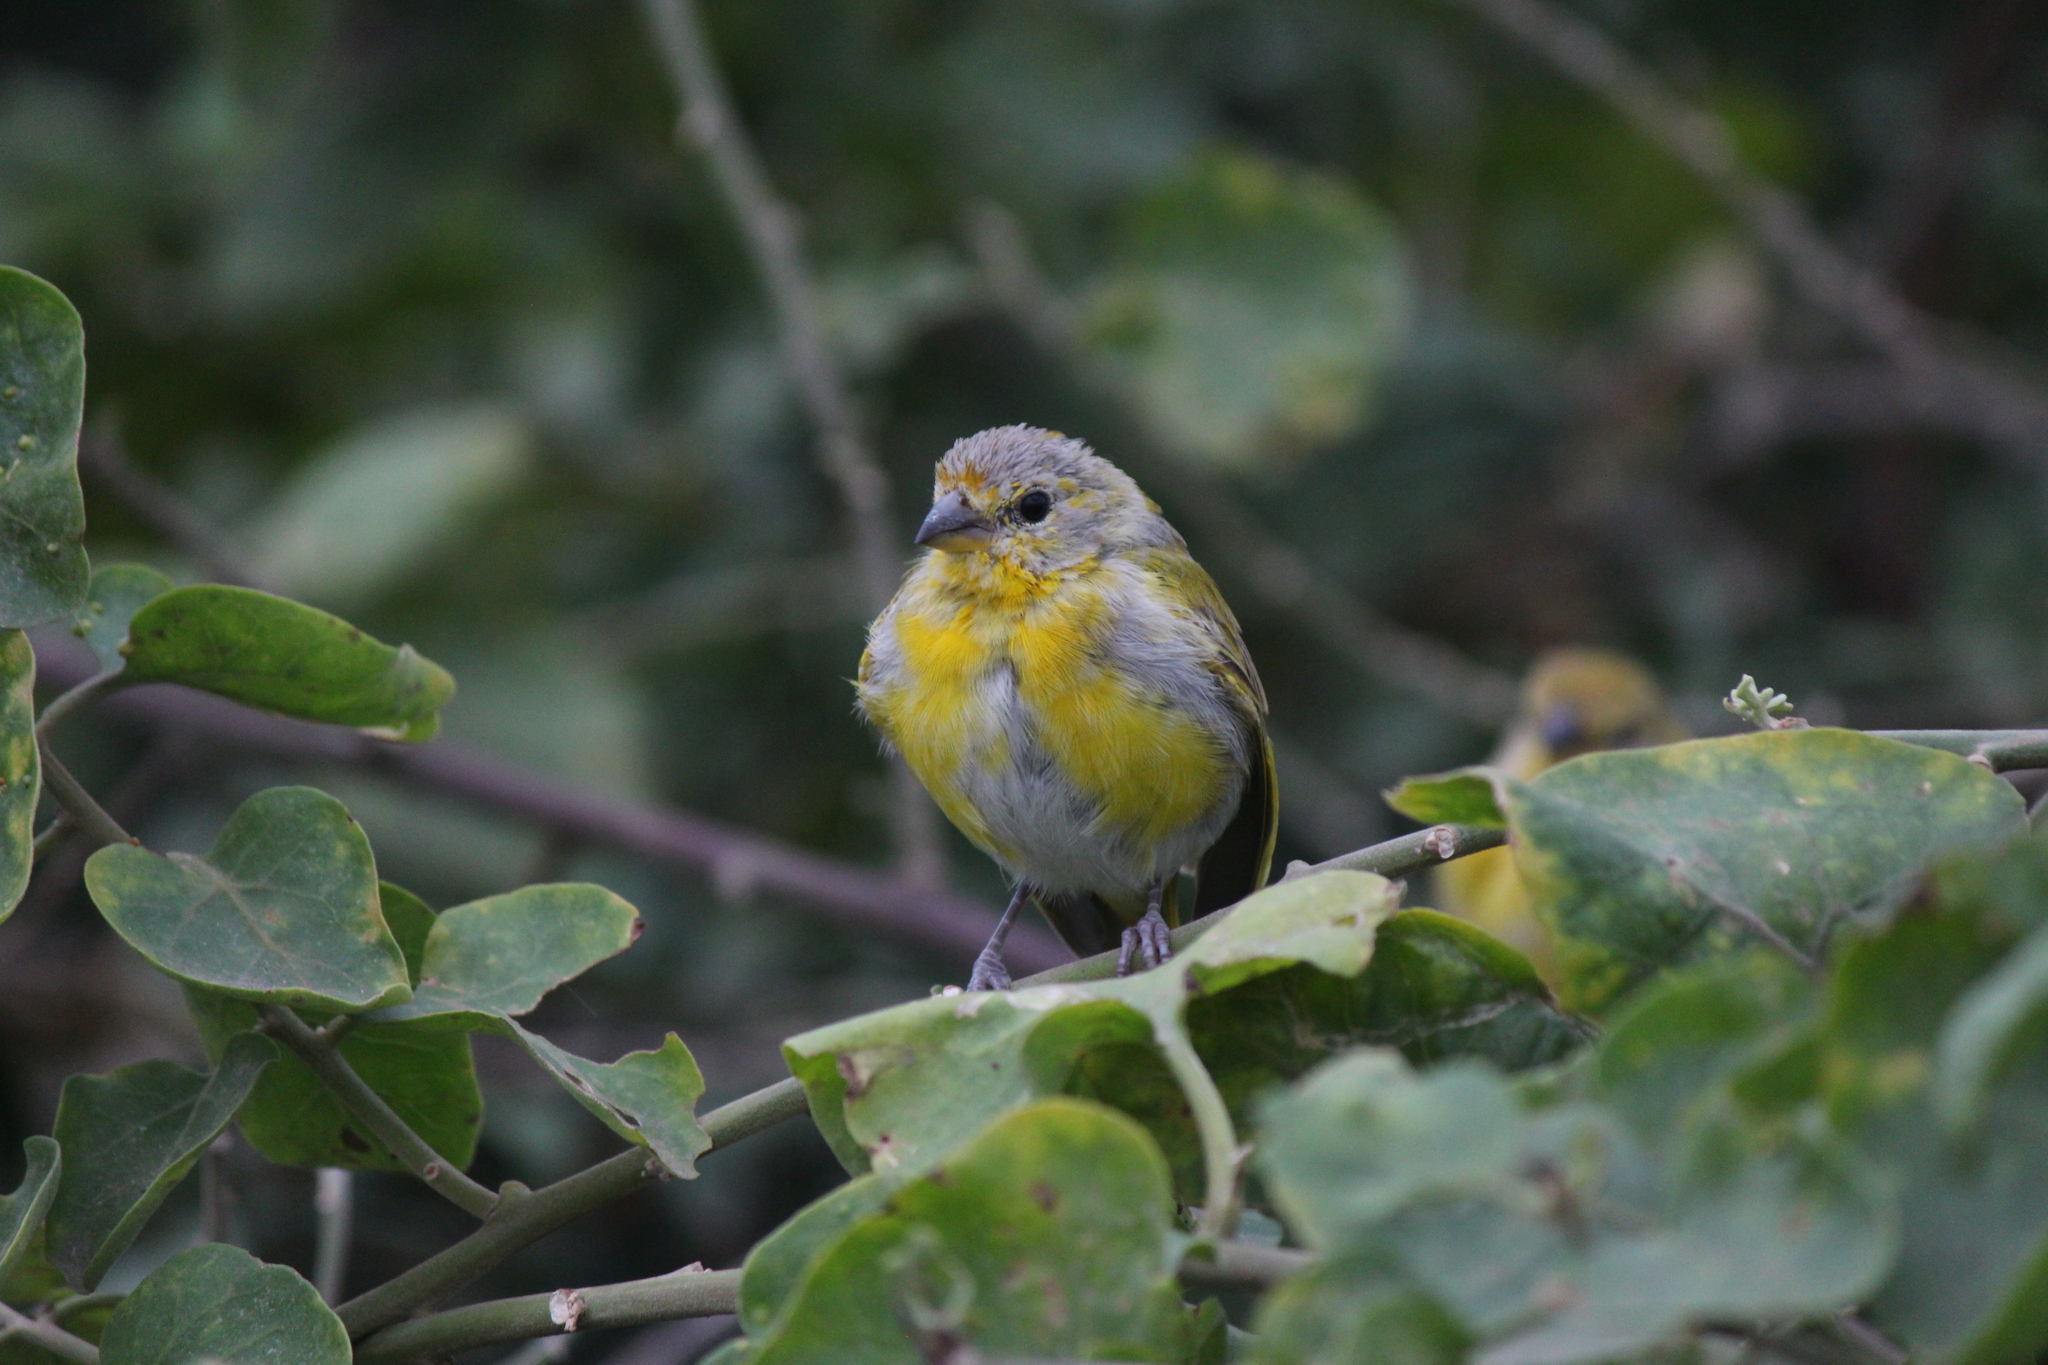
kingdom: Animalia
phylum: Chordata
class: Aves
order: Passeriformes
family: Thraupidae
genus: Sicalis
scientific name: Sicalis flaveola
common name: Saffron finch
